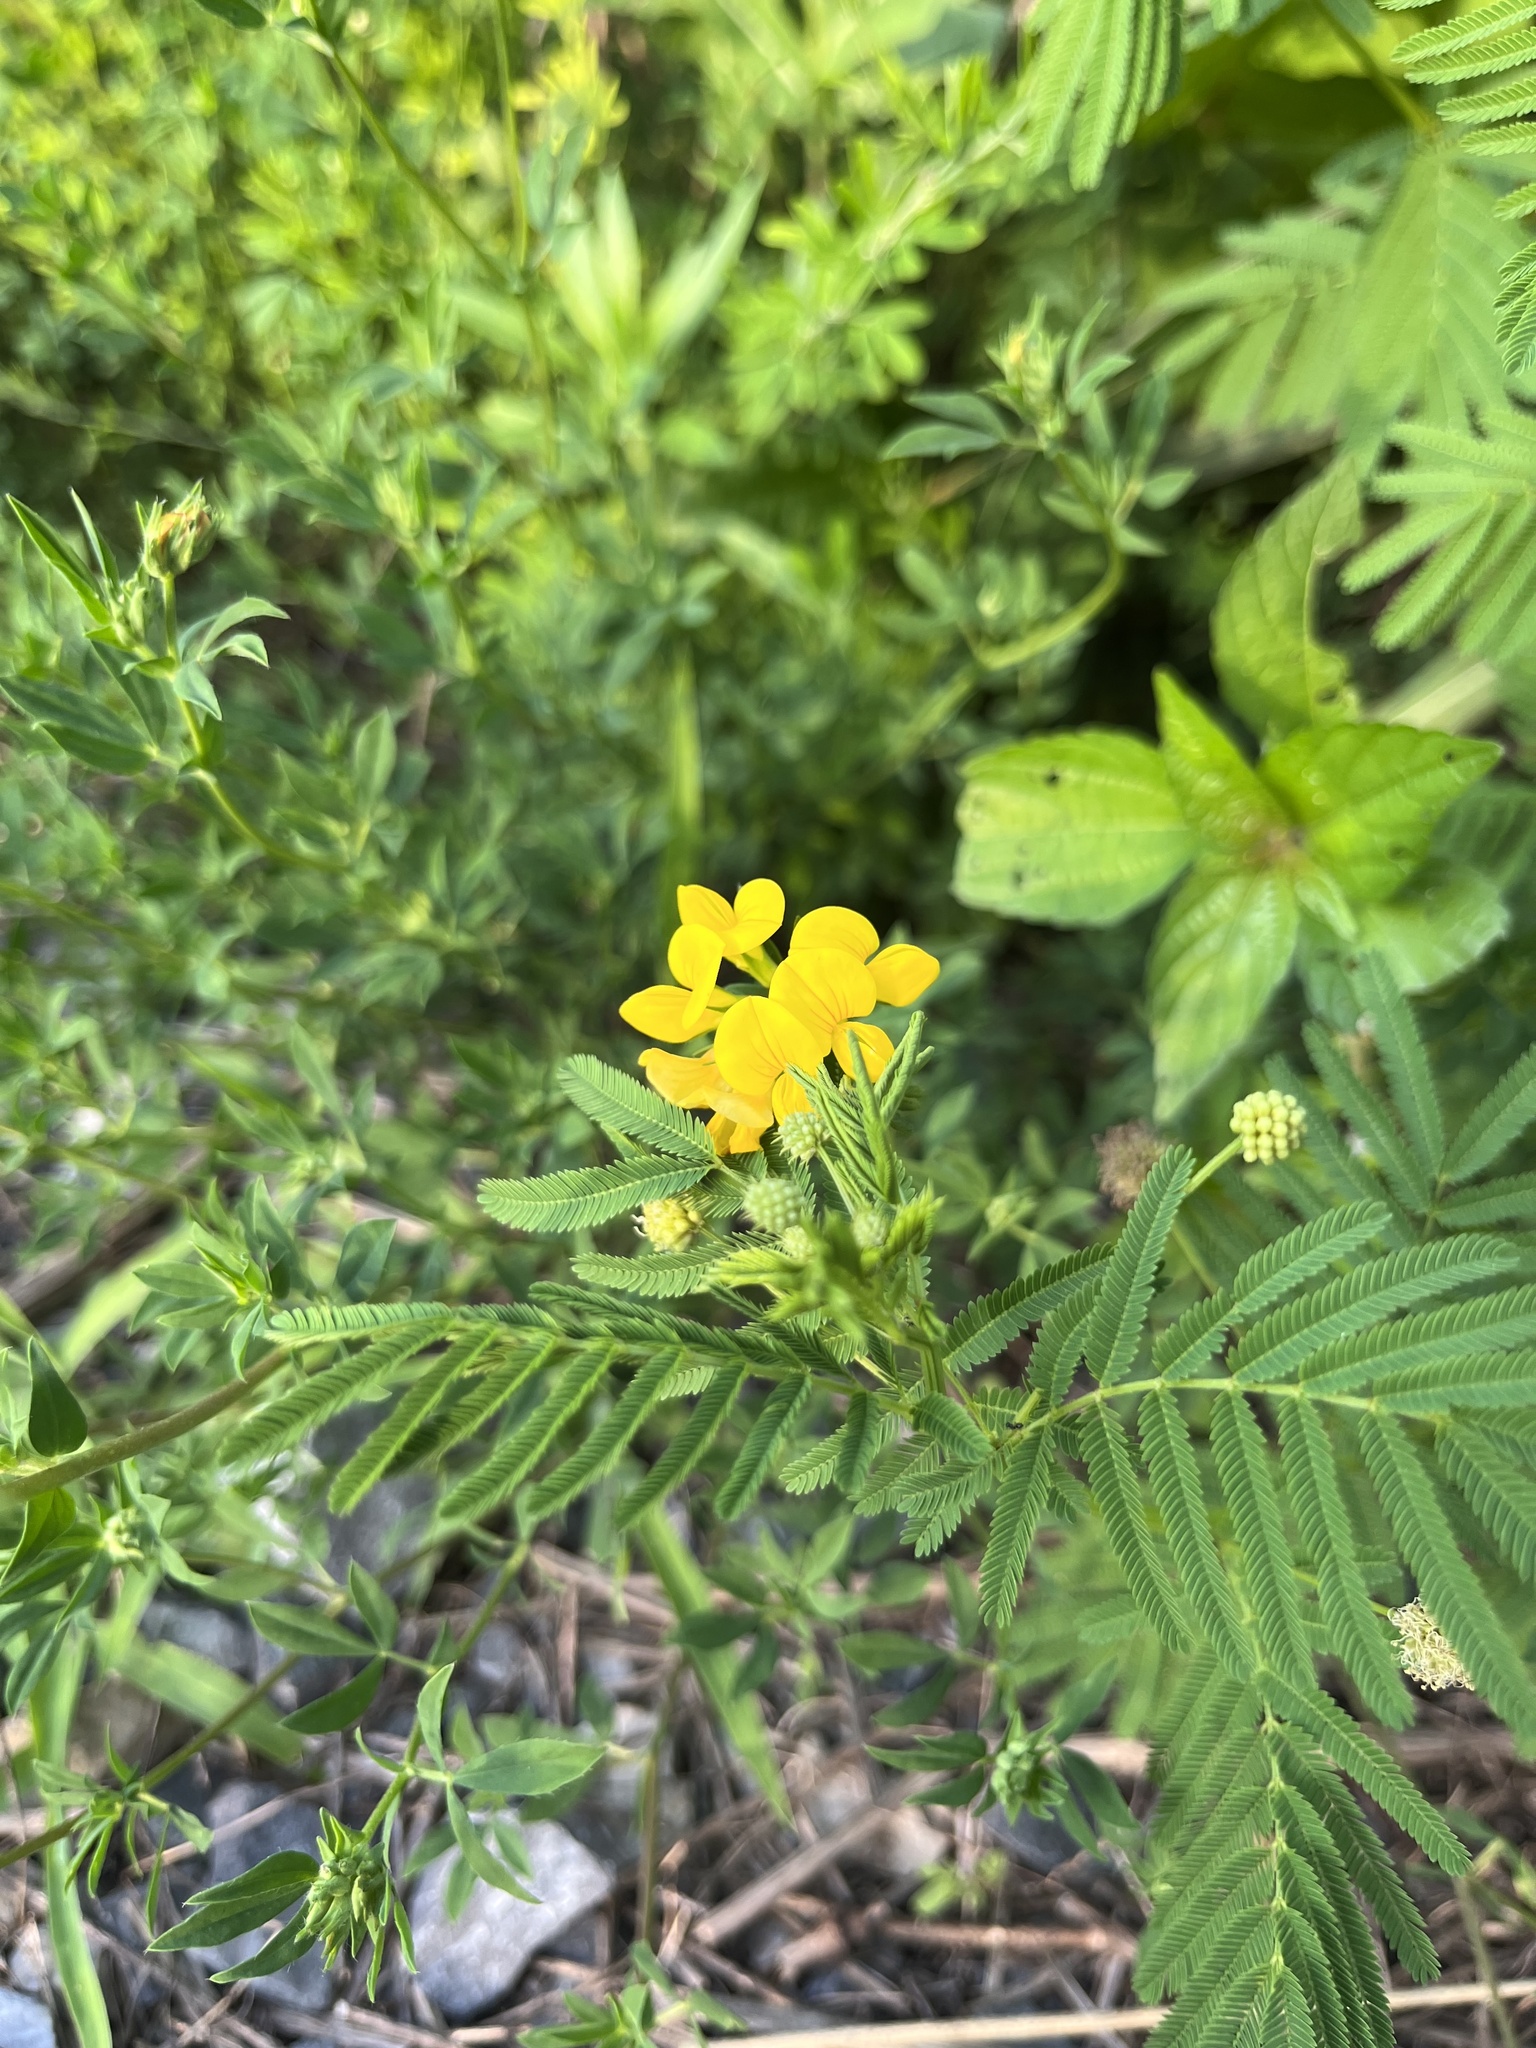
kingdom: Plantae
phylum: Tracheophyta
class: Magnoliopsida
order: Fabales
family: Fabaceae
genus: Lotus
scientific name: Lotus corniculatus
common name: Common bird's-foot-trefoil
